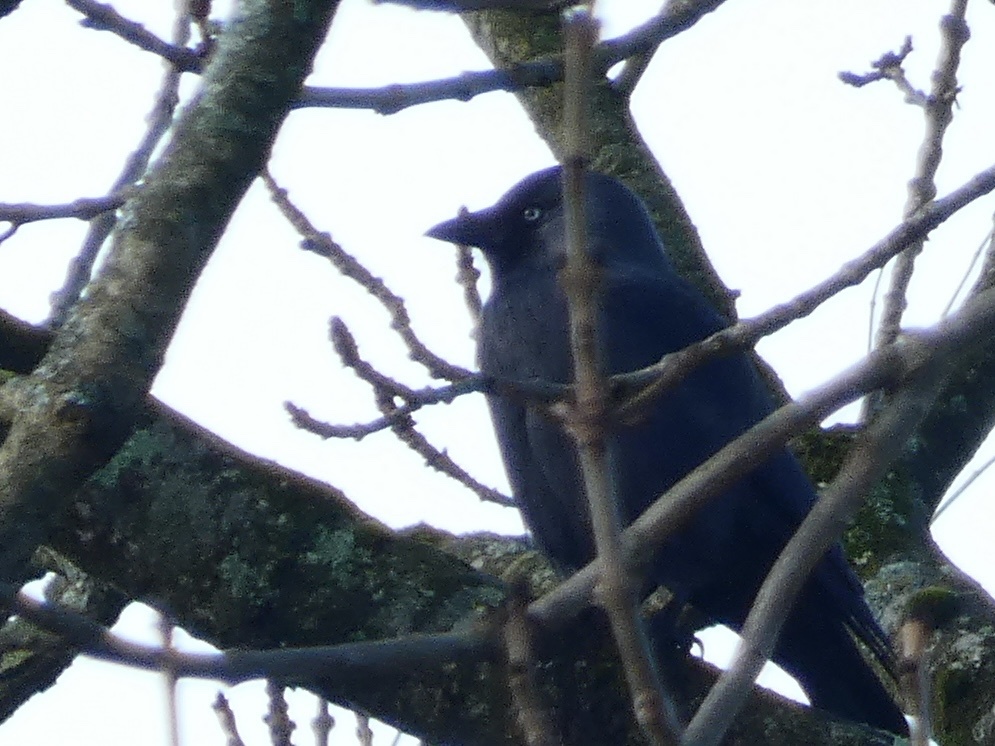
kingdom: Animalia
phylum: Chordata
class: Aves
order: Passeriformes
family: Corvidae
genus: Coloeus
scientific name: Coloeus monedula
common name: Western jackdaw
